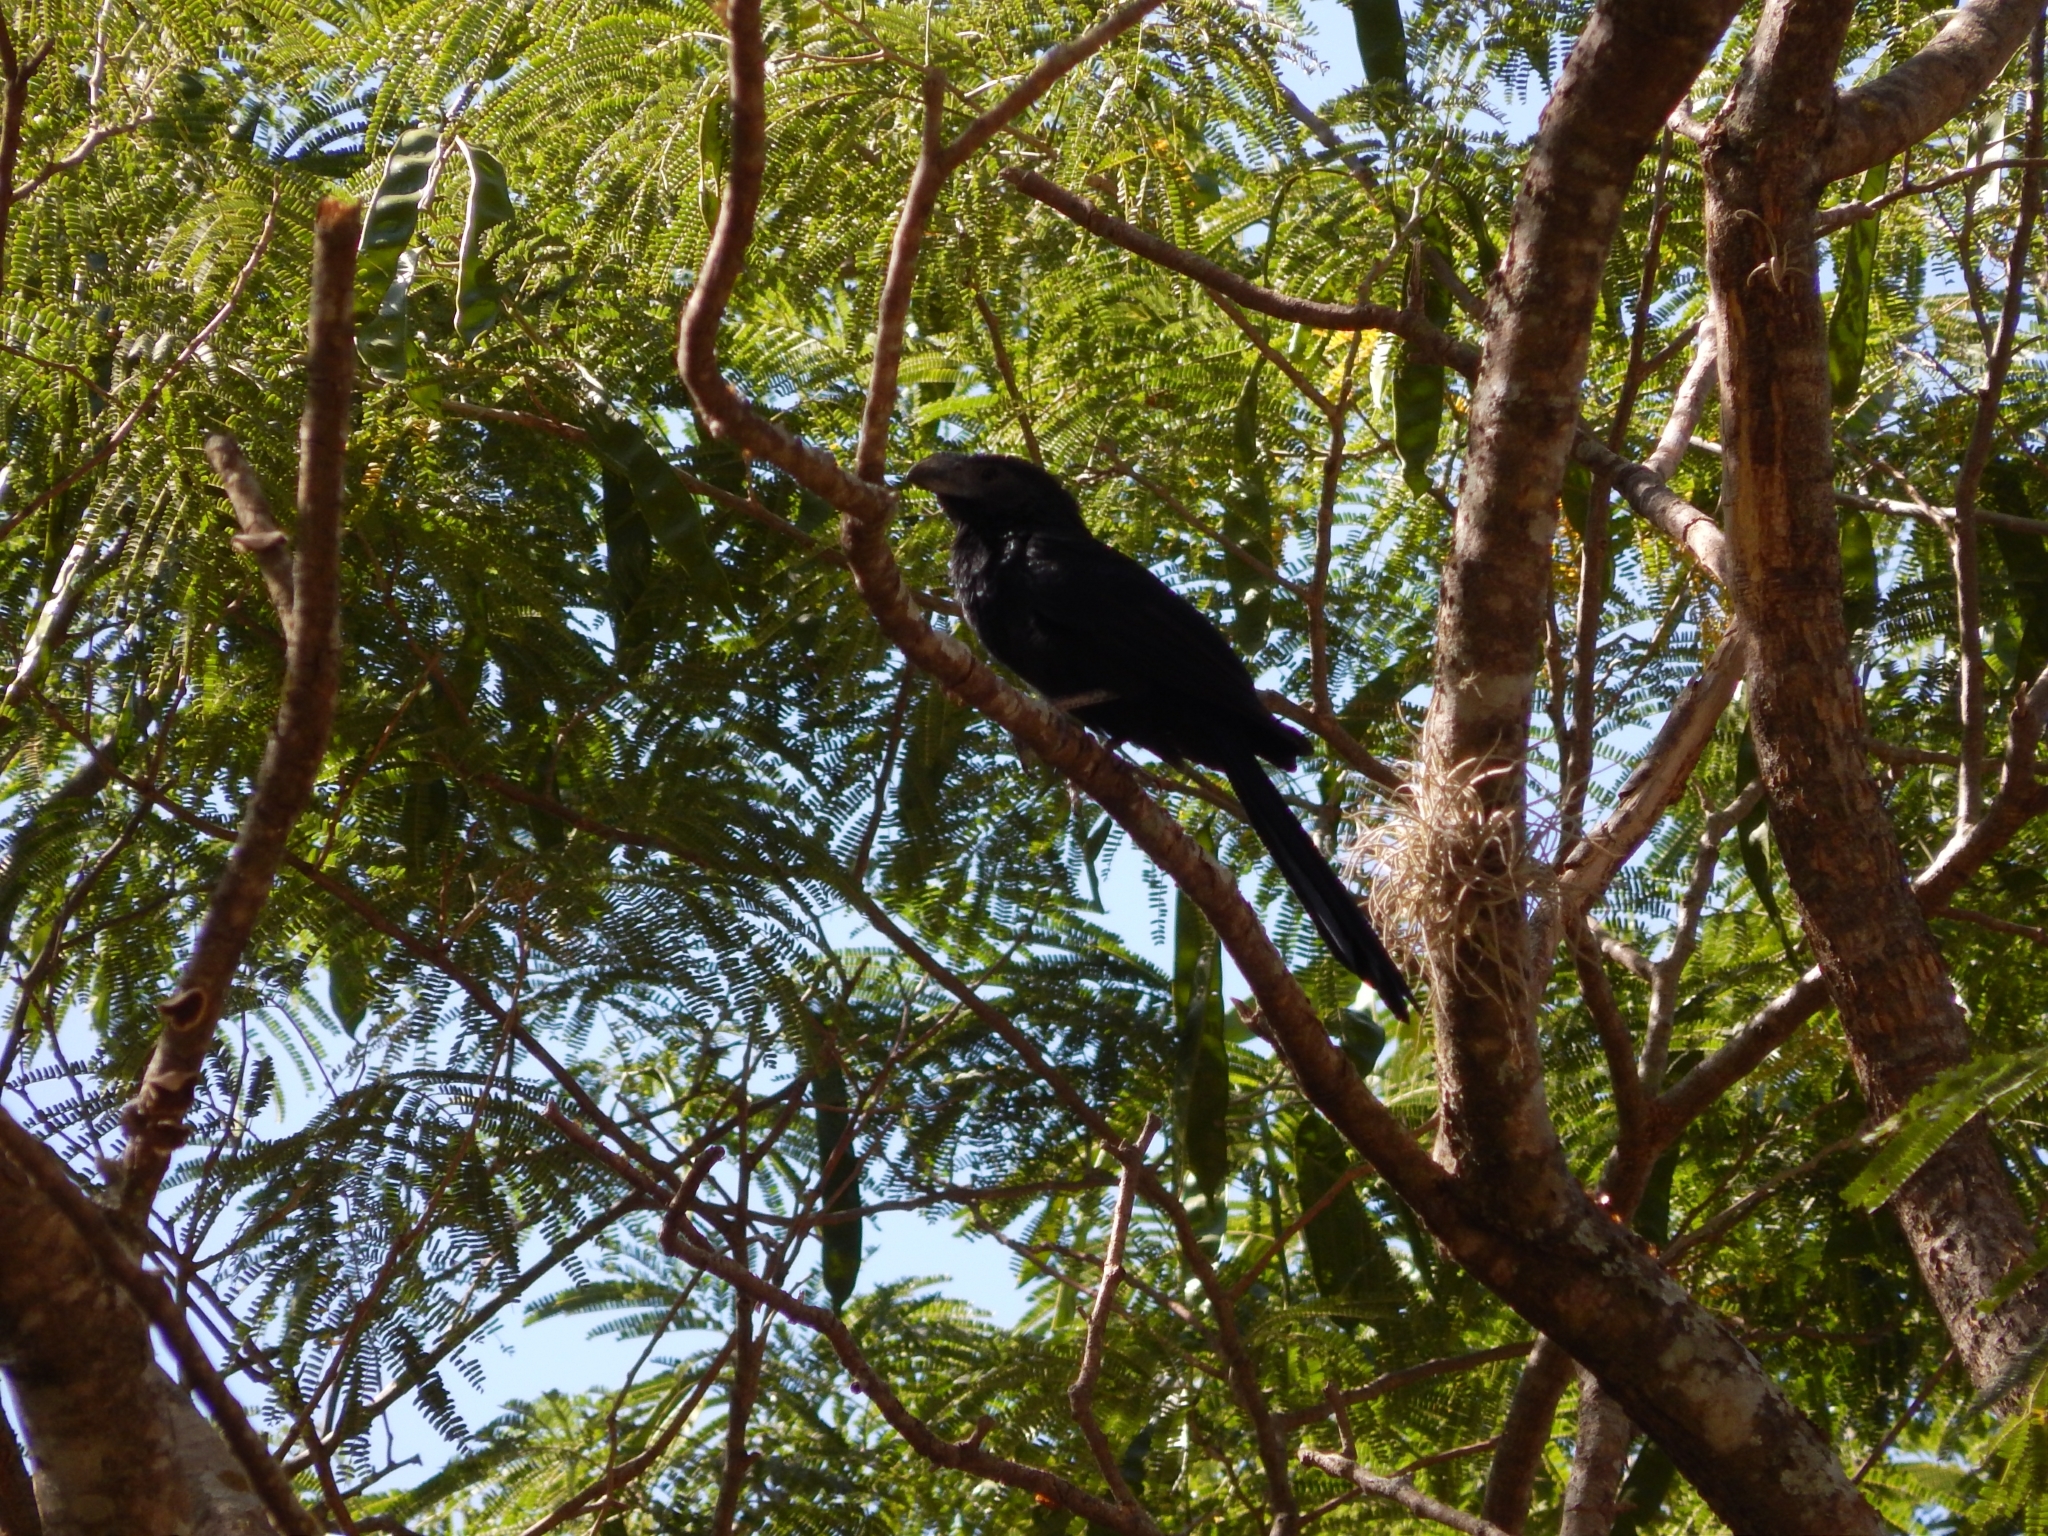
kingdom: Animalia
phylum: Chordata
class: Aves
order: Cuculiformes
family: Cuculidae
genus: Crotophaga
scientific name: Crotophaga sulcirostris
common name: Groove-billed ani
